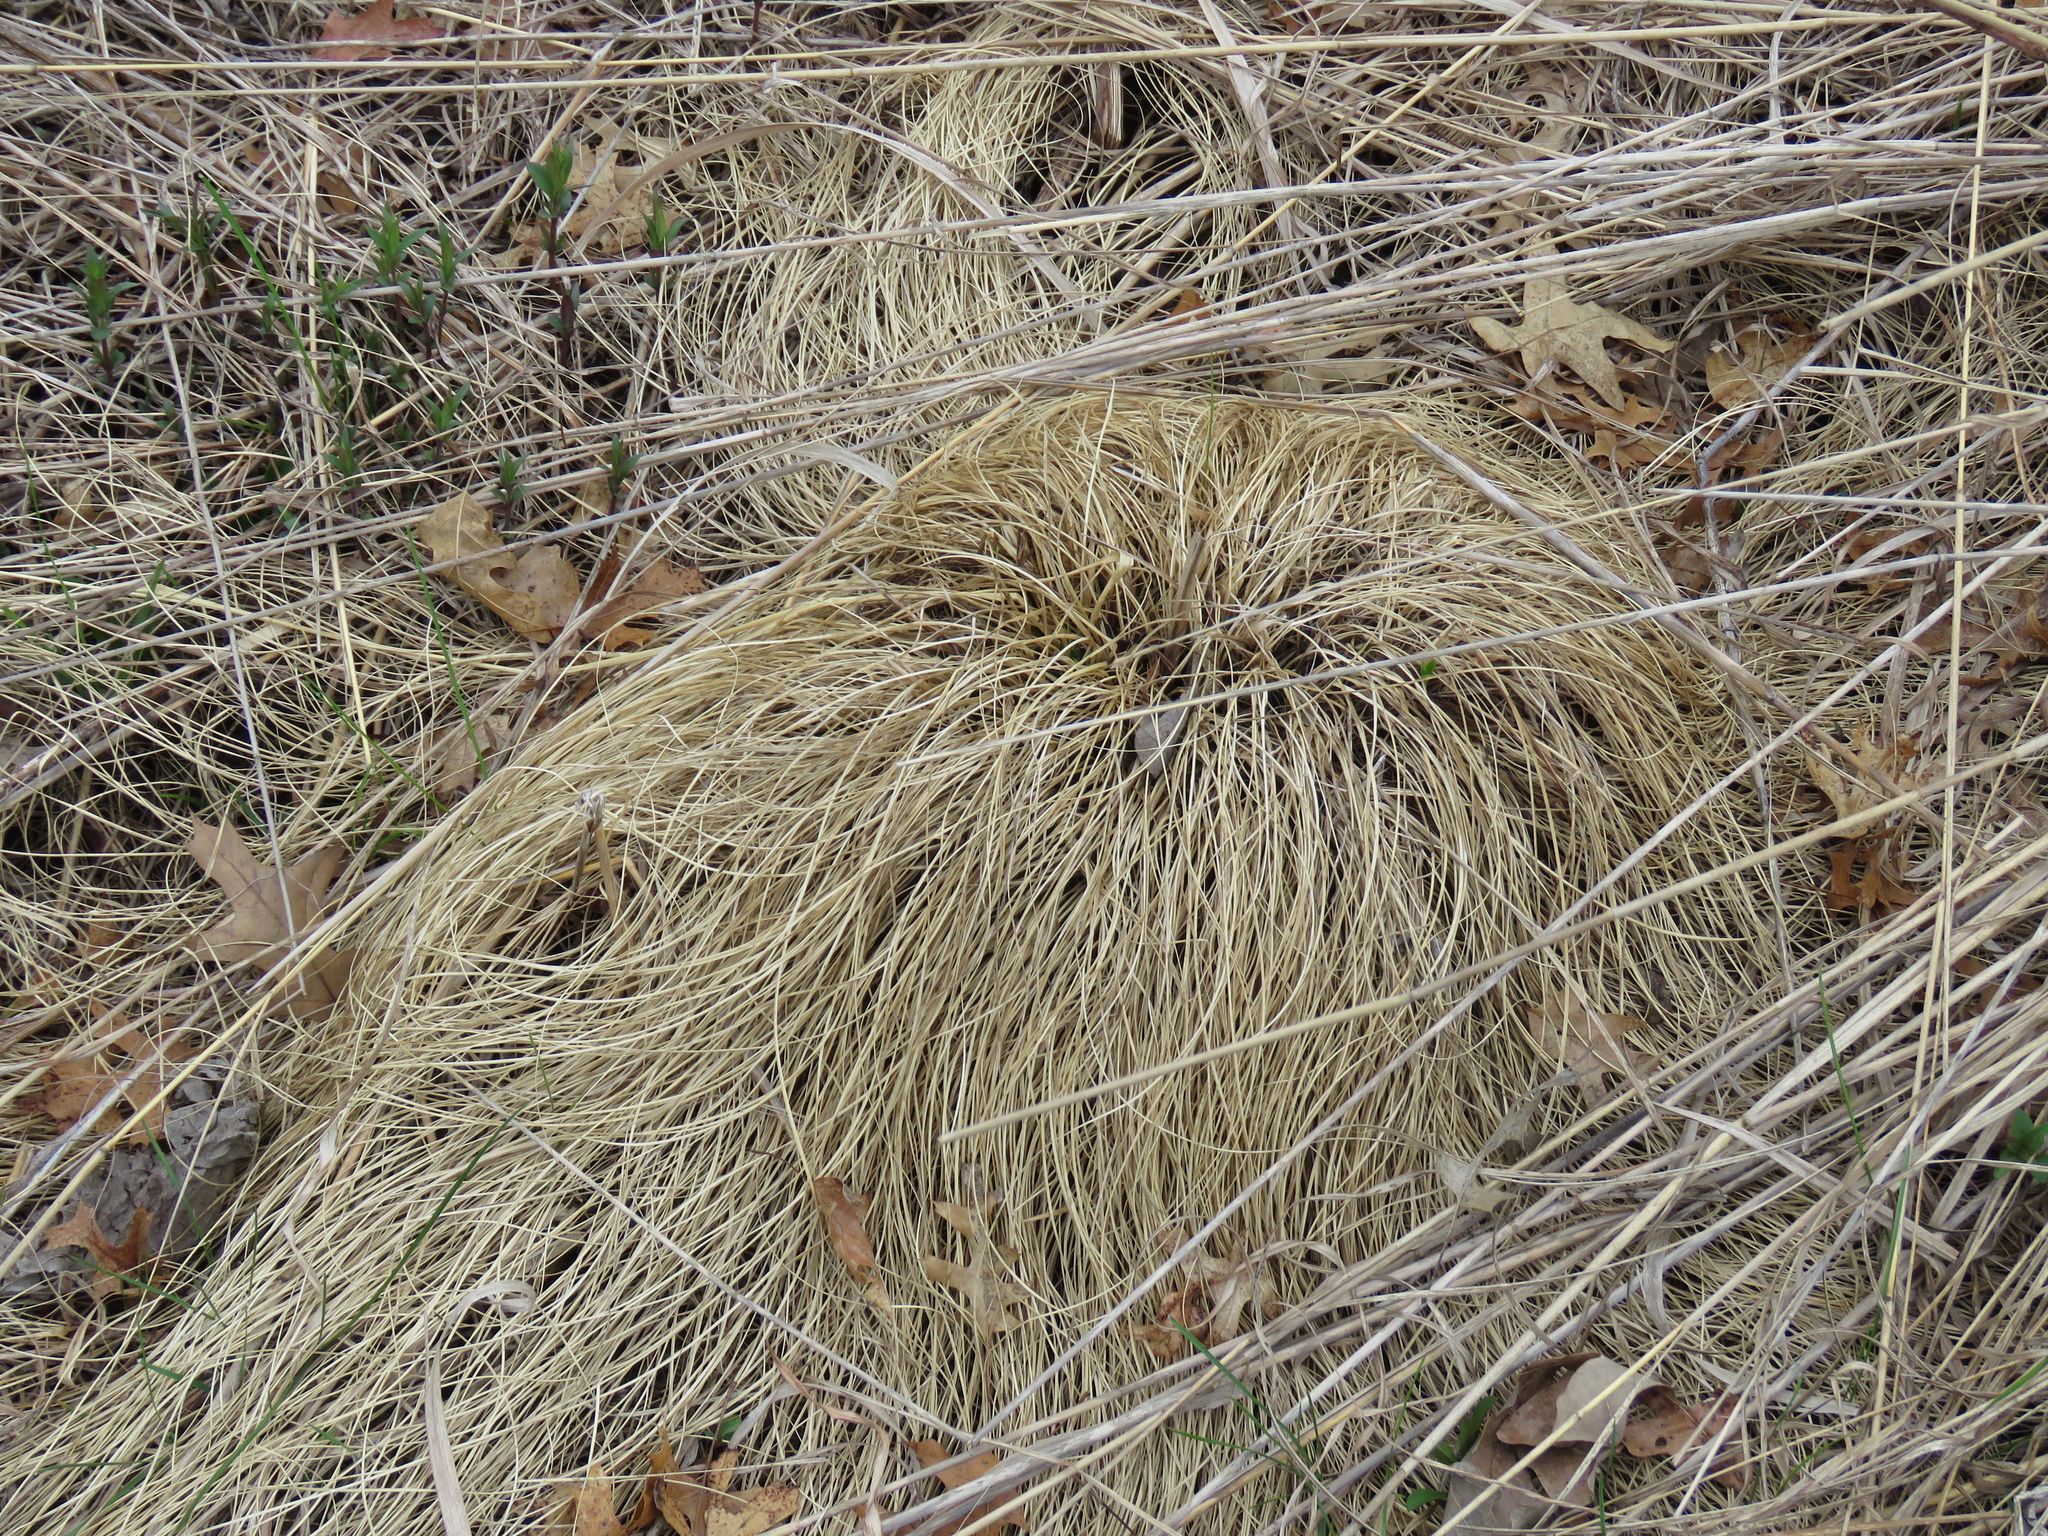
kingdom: Plantae
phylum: Tracheophyta
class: Liliopsida
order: Poales
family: Poaceae
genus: Sporobolus
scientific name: Sporobolus heterolepis
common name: Prairie dropseed
